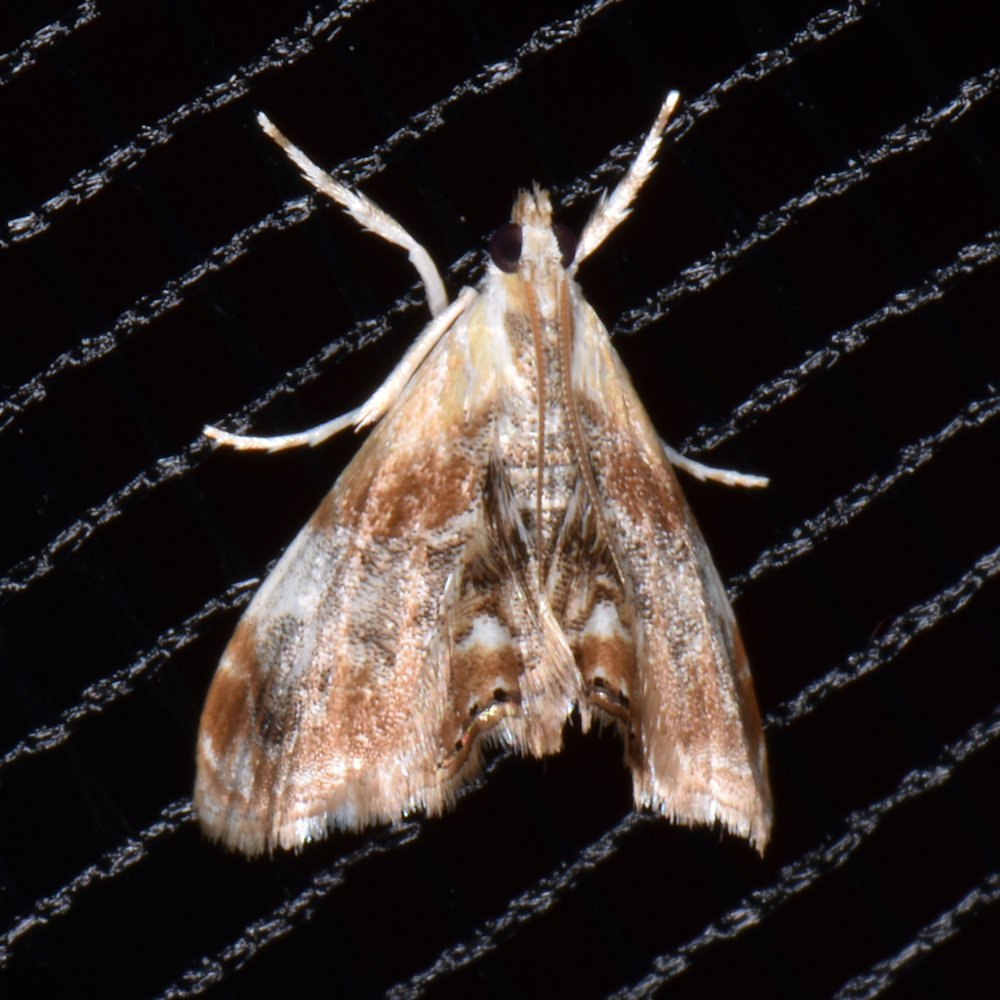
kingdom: Animalia
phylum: Arthropoda
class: Insecta
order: Lepidoptera
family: Crambidae
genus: Dicymolomia
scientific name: Dicymolomia julianalis
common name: Julia's dicymolomia moth
